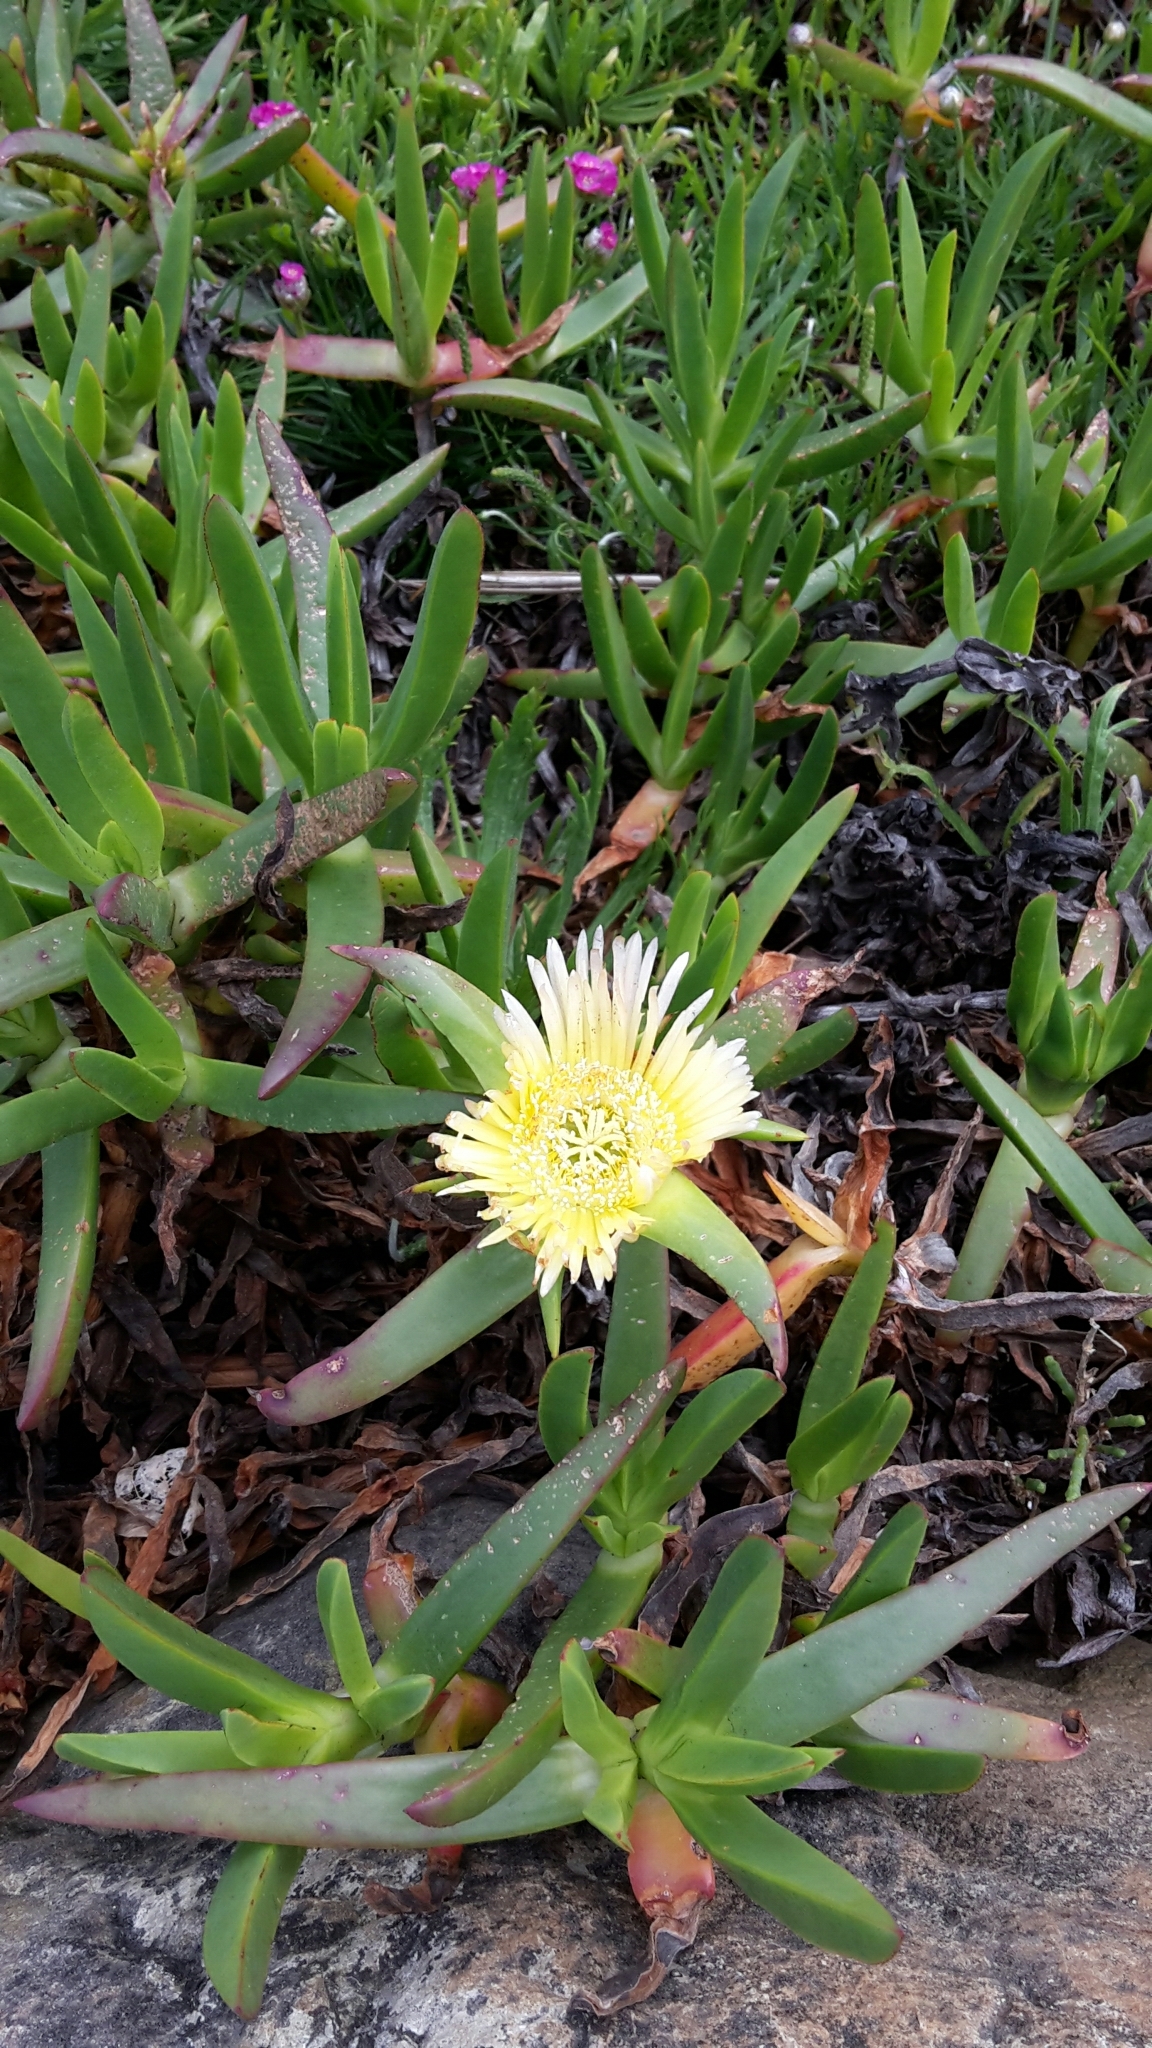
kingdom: Plantae
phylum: Tracheophyta
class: Magnoliopsida
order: Caryophyllales
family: Aizoaceae
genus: Carpobrotus
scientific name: Carpobrotus edulis
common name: Hottentot-fig
